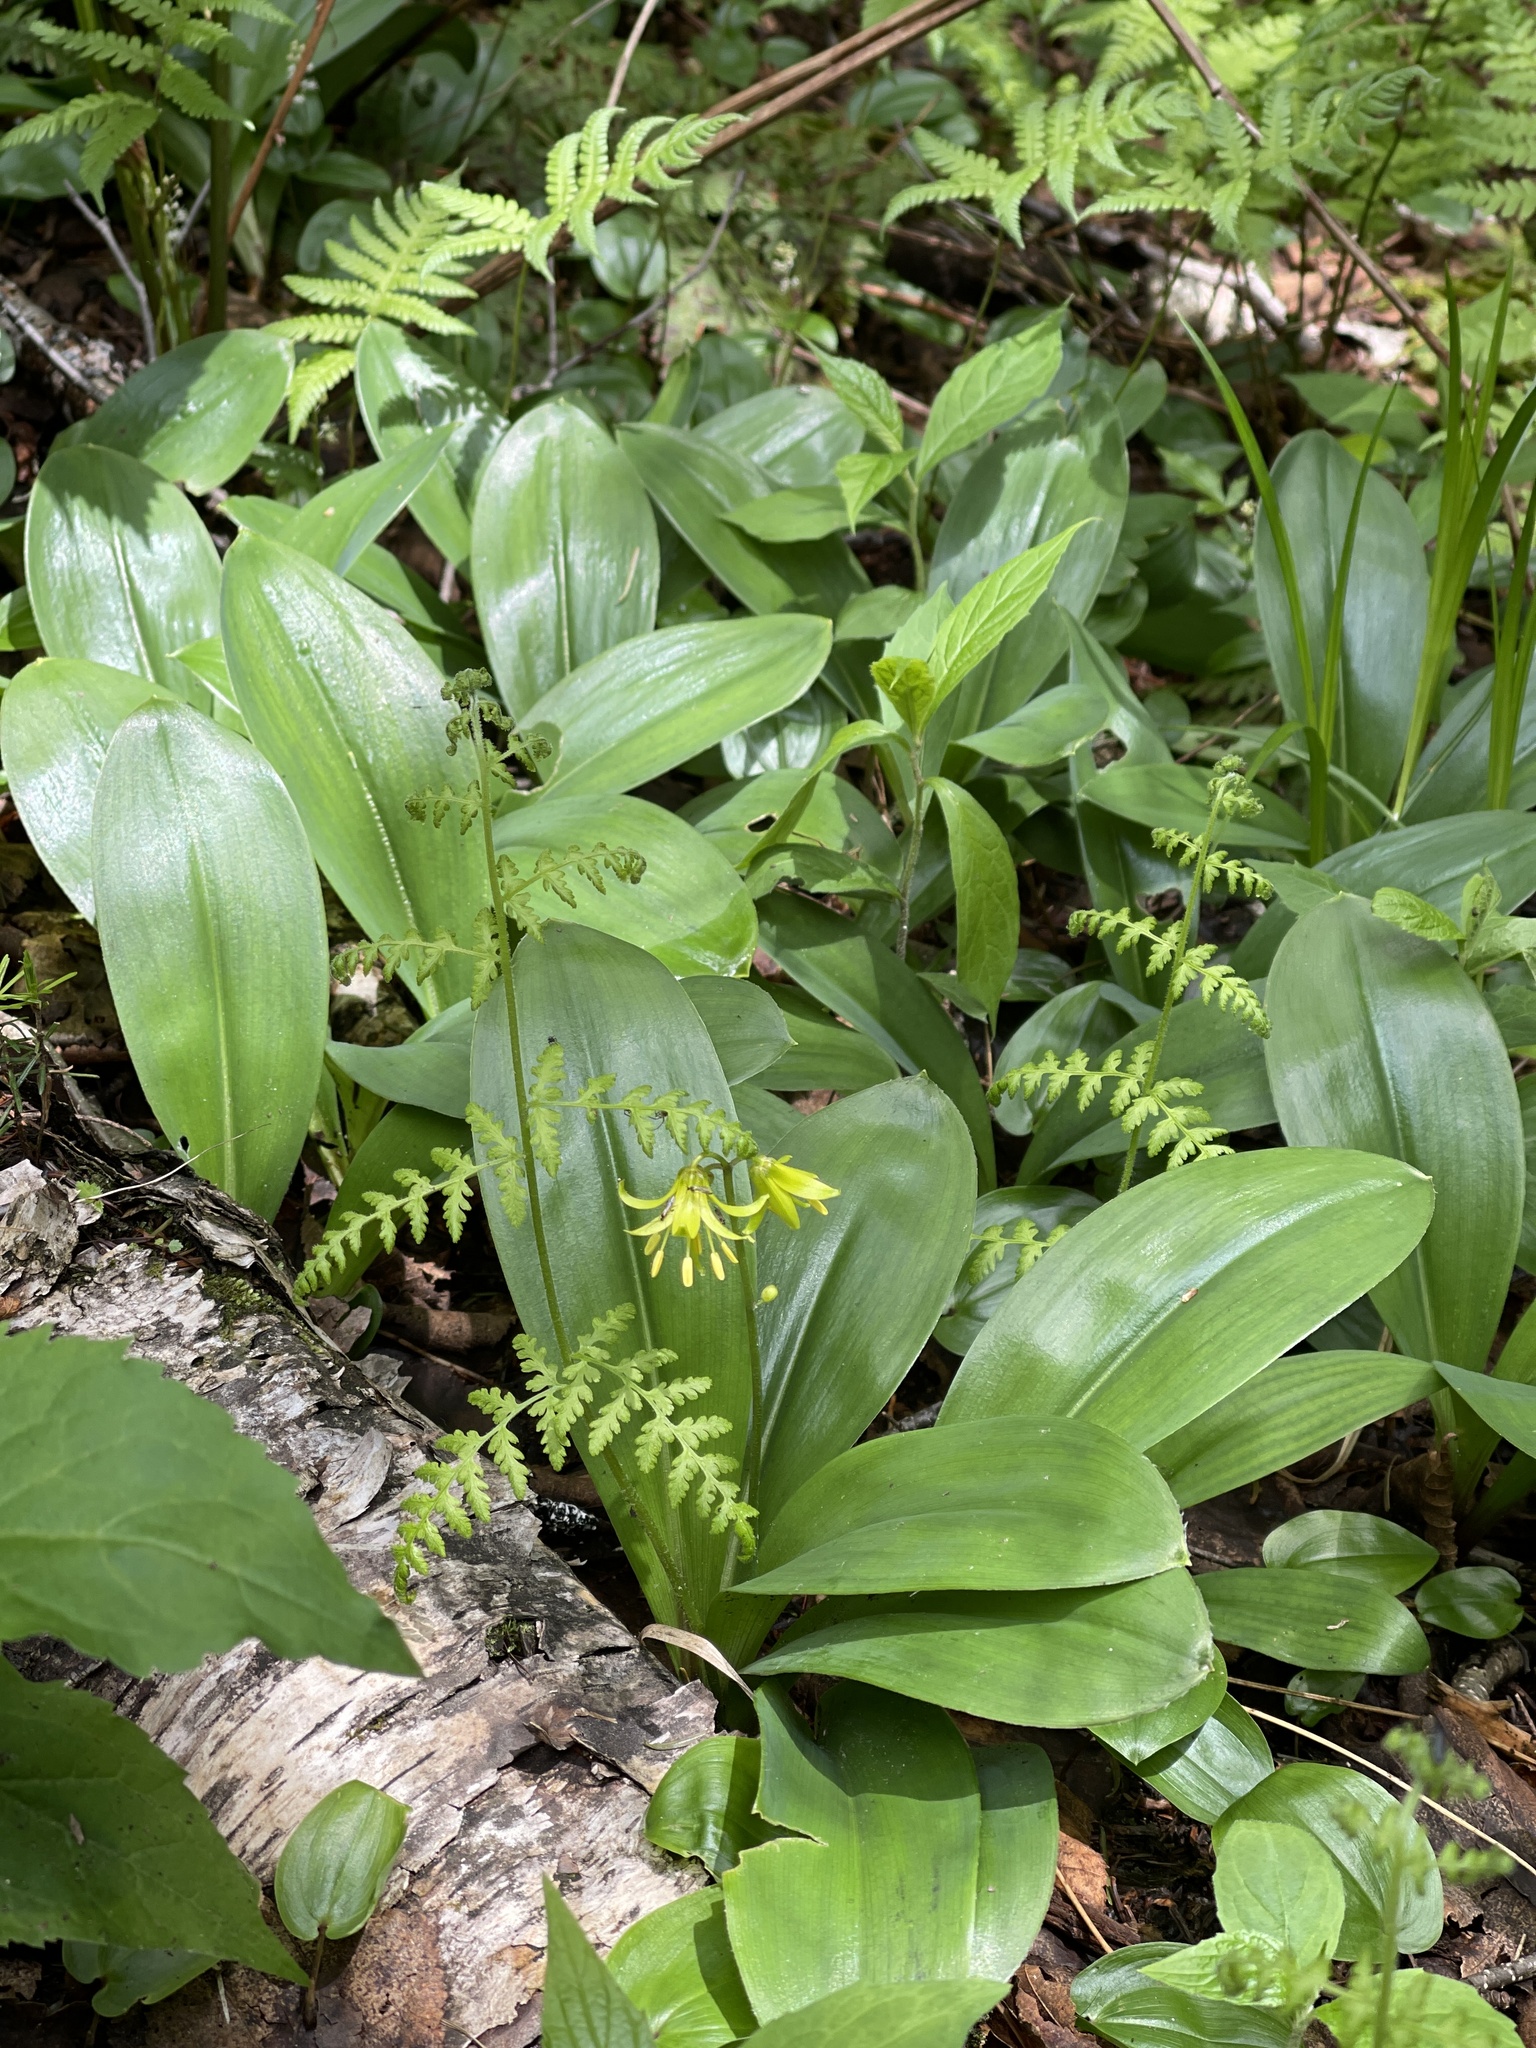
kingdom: Plantae
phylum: Tracheophyta
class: Liliopsida
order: Liliales
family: Liliaceae
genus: Clintonia
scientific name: Clintonia borealis
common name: Yellow clintonia
